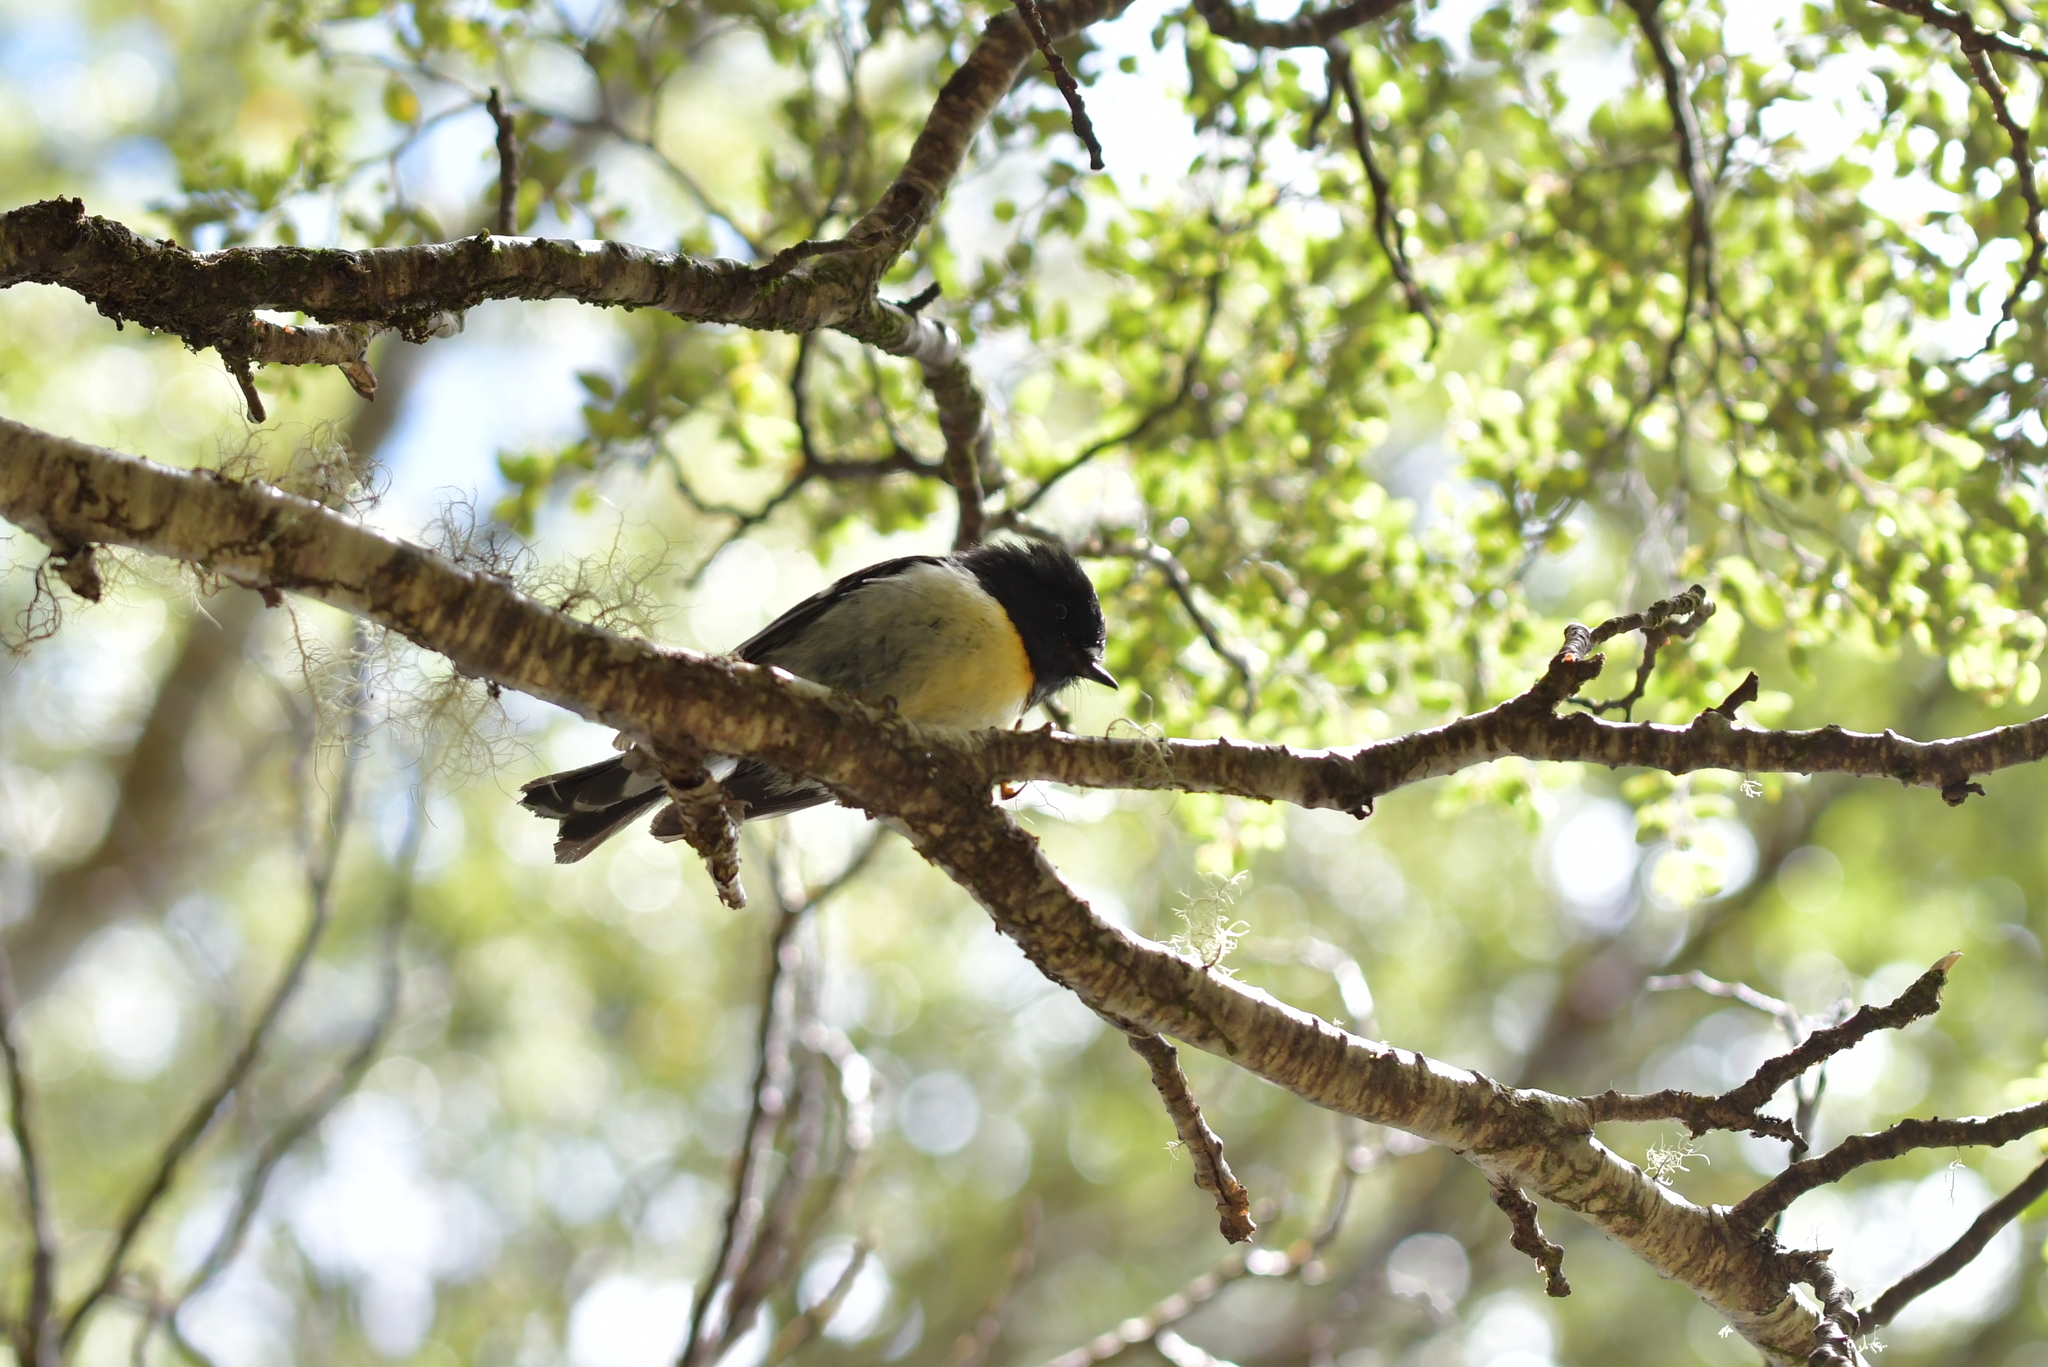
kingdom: Animalia
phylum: Chordata
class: Aves
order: Passeriformes
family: Petroicidae
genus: Petroica
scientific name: Petroica macrocephala
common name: Tomtit
